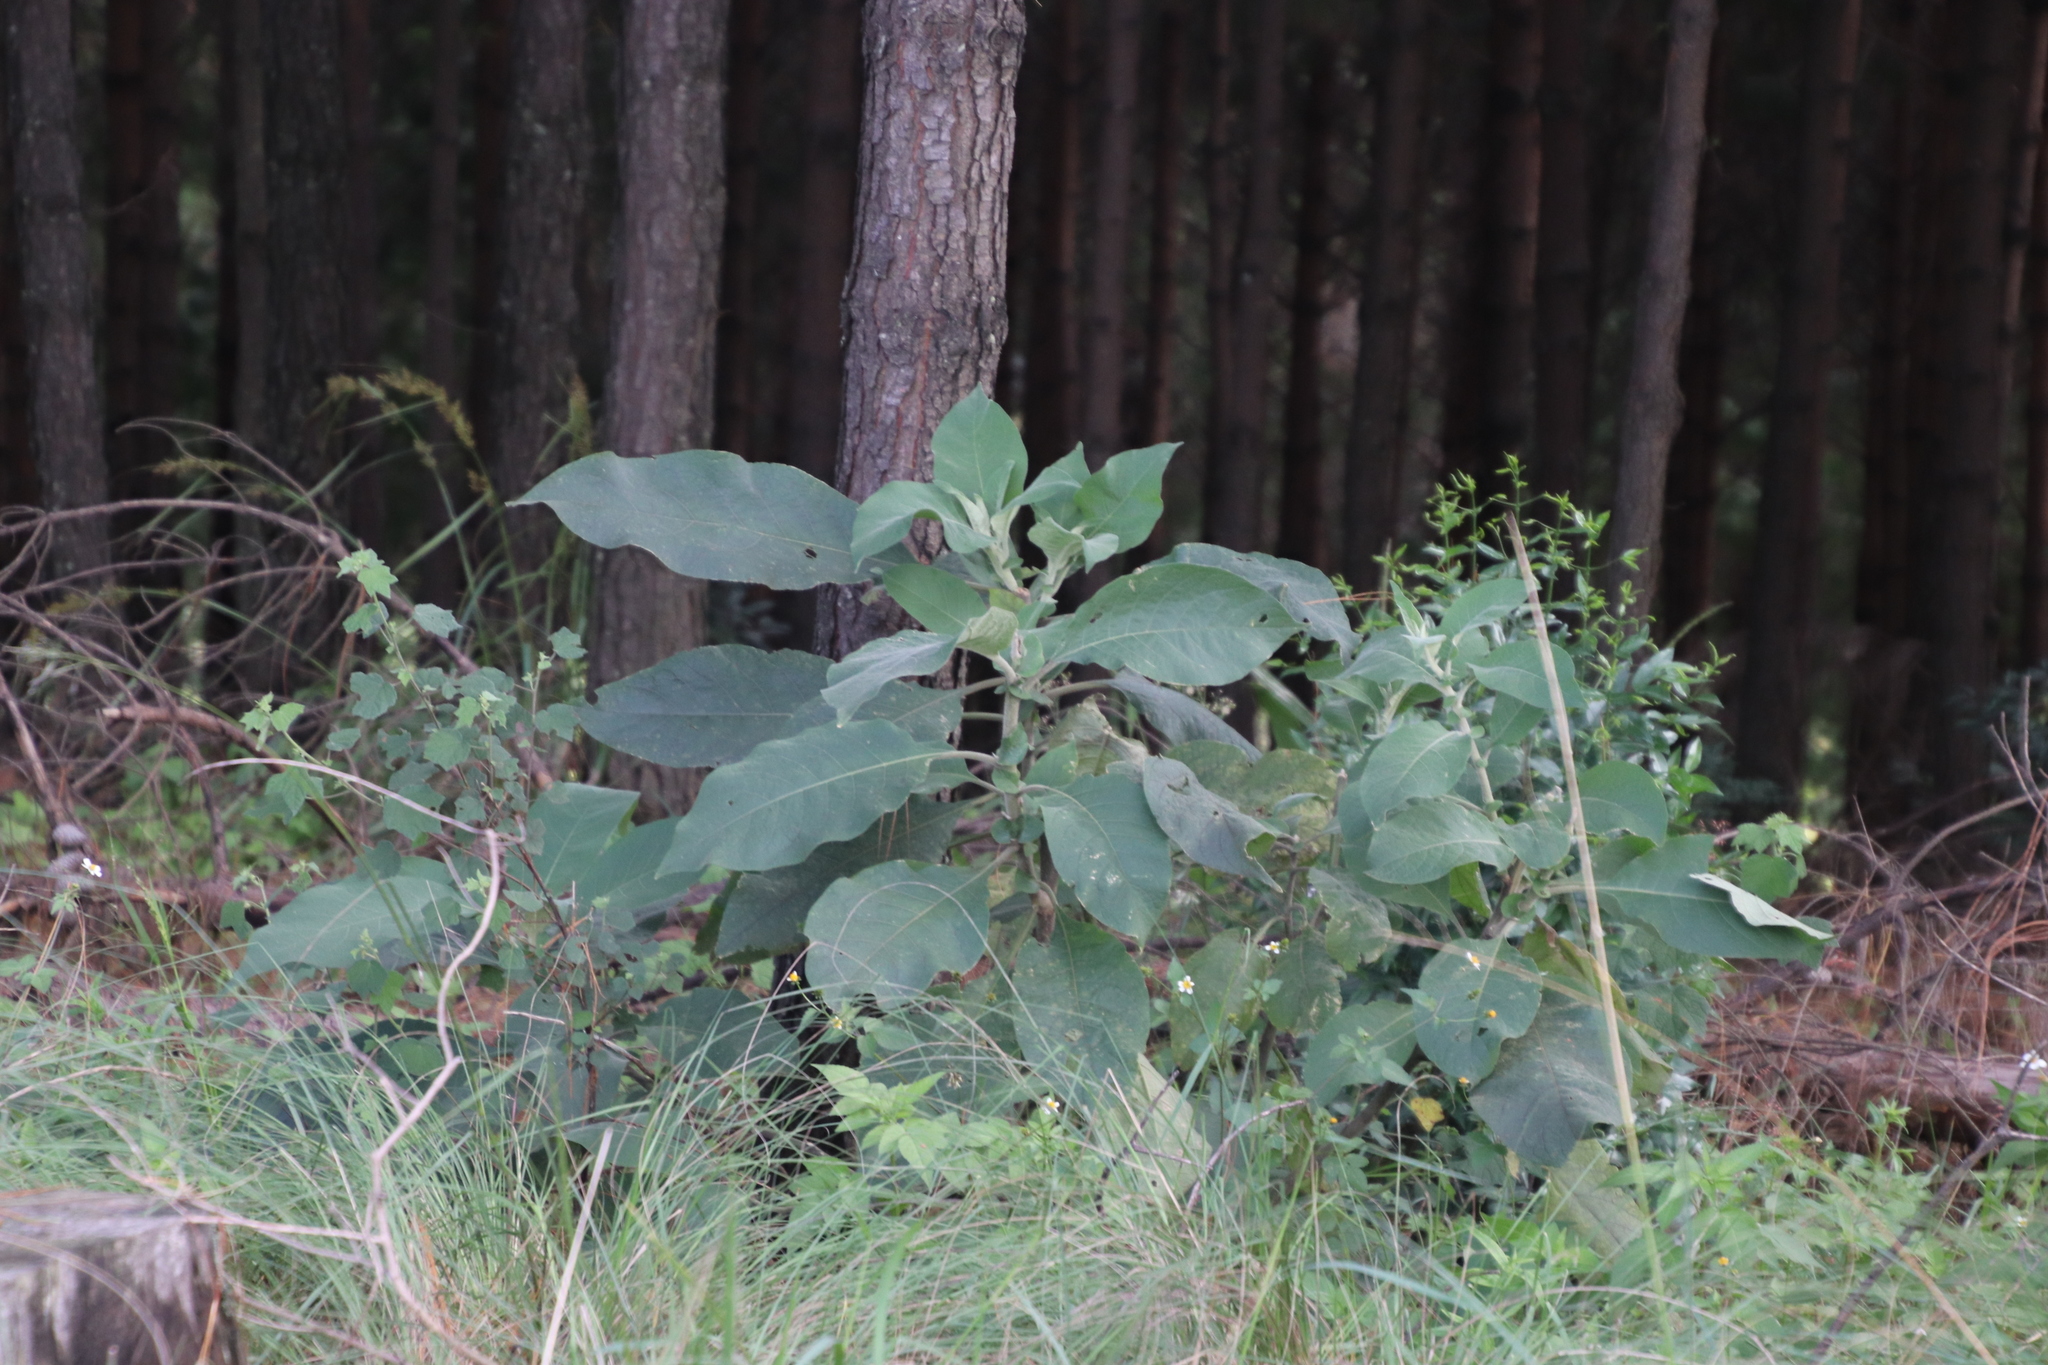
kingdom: Plantae
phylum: Tracheophyta
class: Magnoliopsida
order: Solanales
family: Solanaceae
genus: Solanum
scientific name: Solanum mauritianum
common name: Earleaf nightshade
